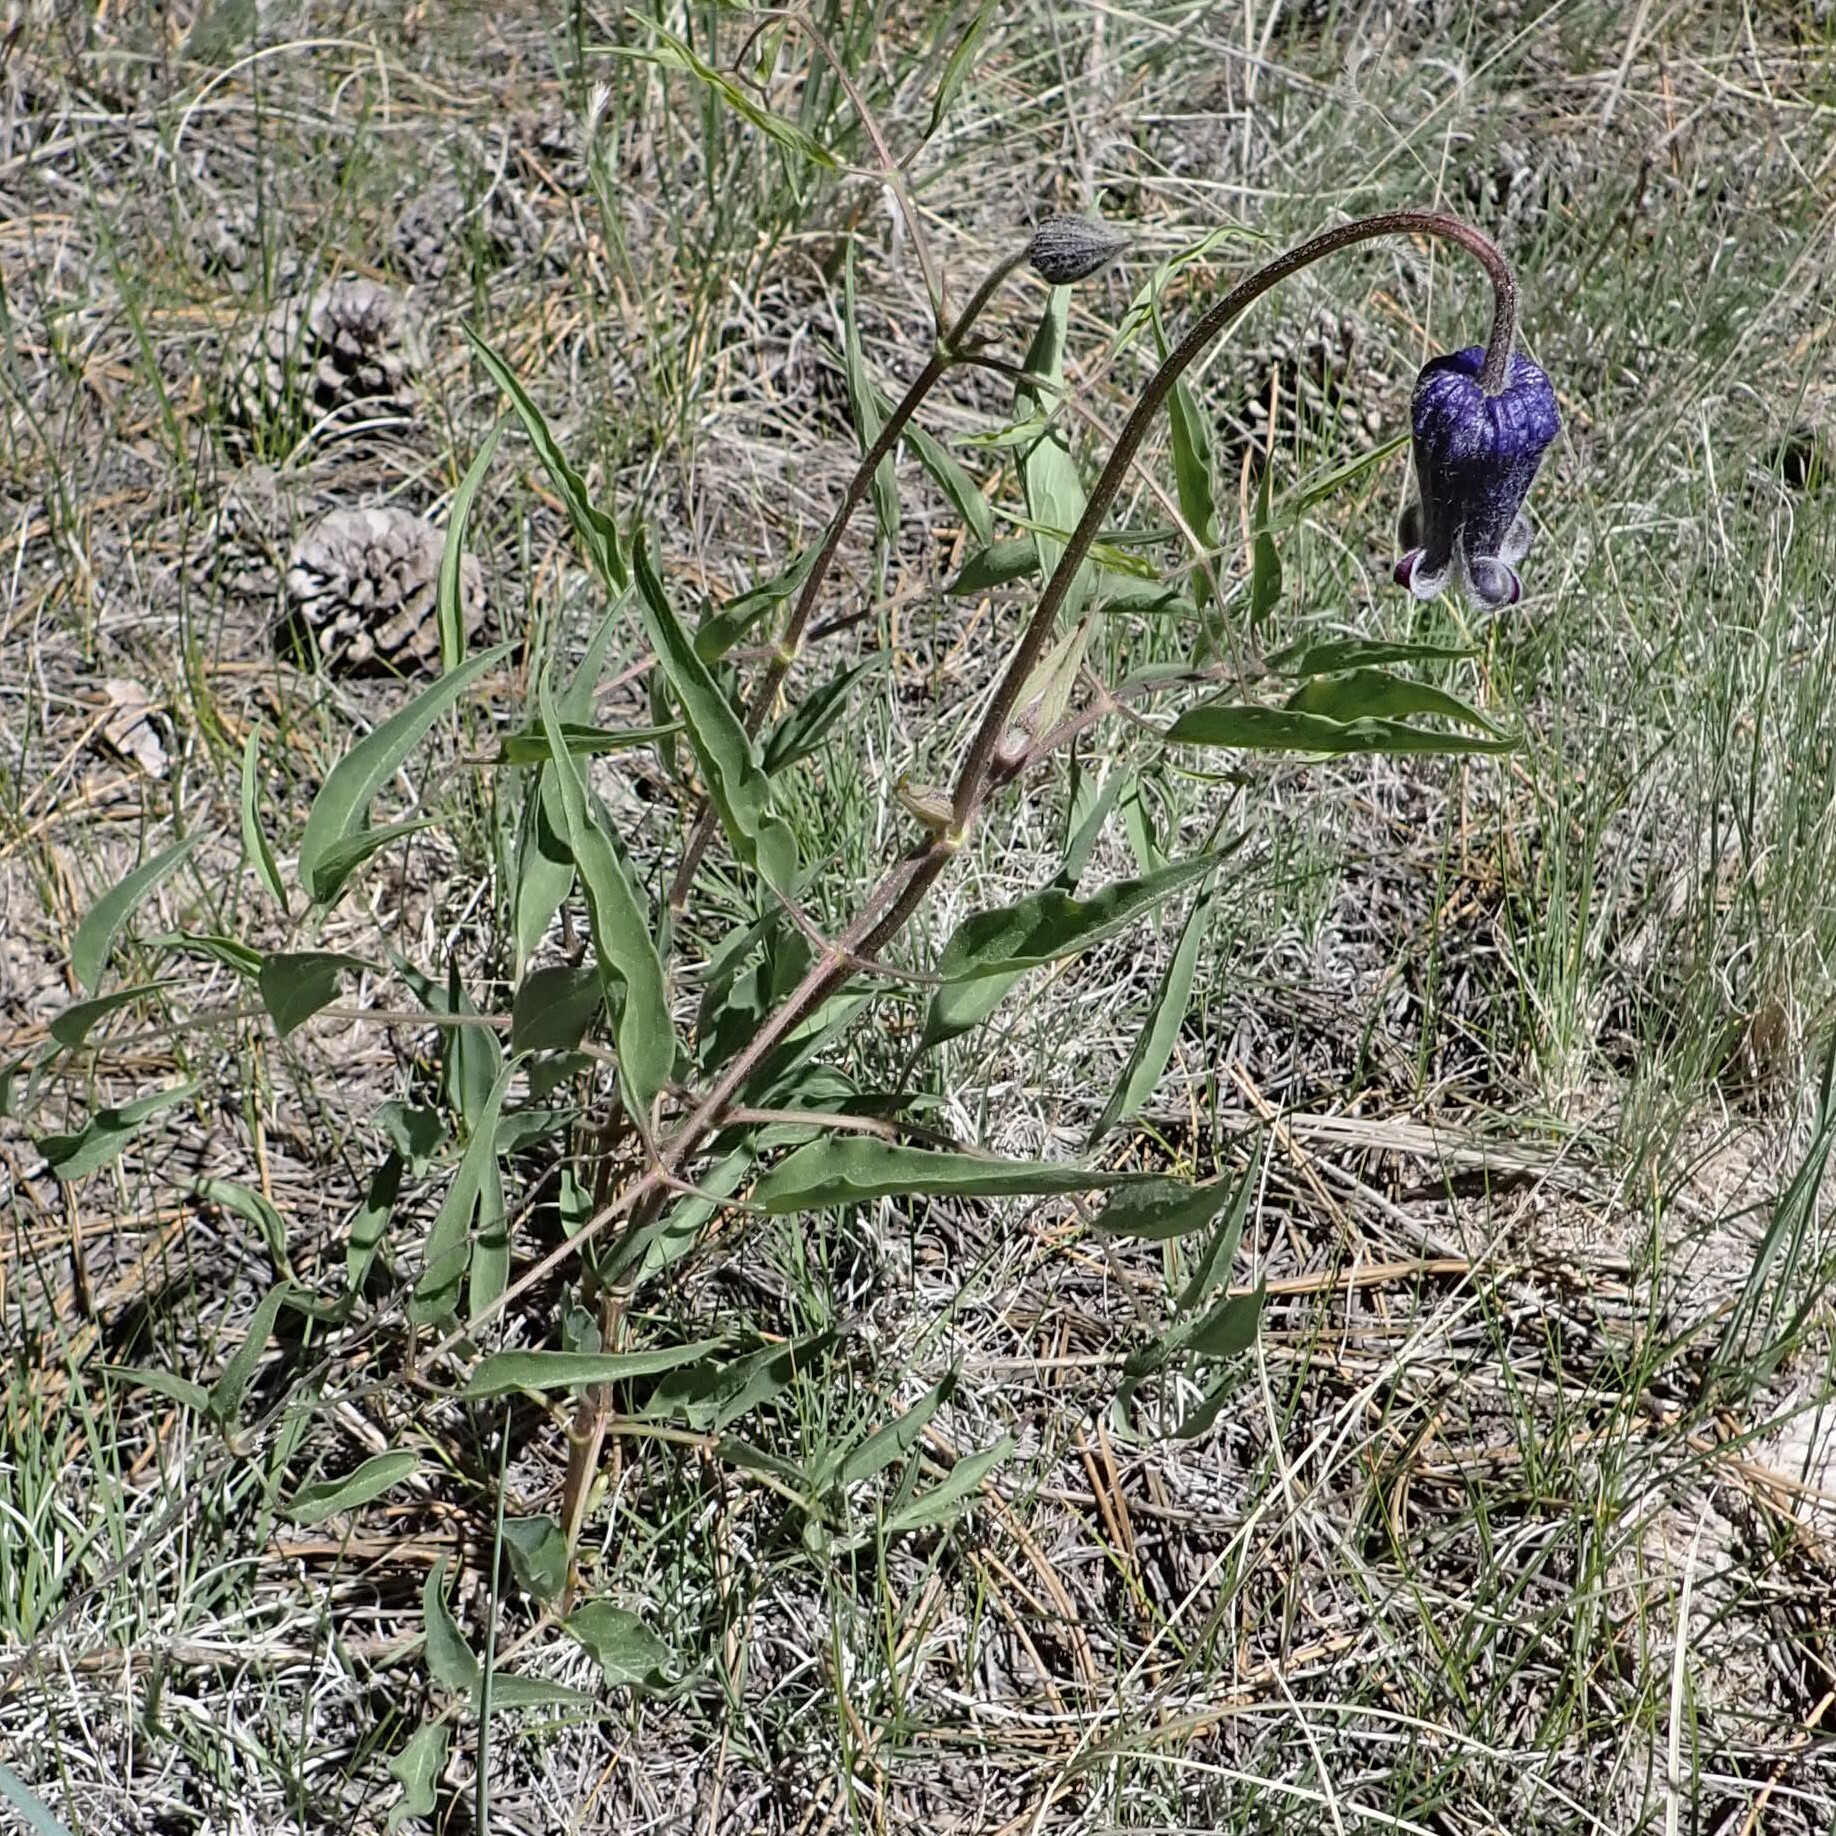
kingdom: Plantae
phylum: Tracheophyta
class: Magnoliopsida
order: Ranunculales
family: Ranunculaceae
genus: Clematis
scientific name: Clematis hirsutissima
